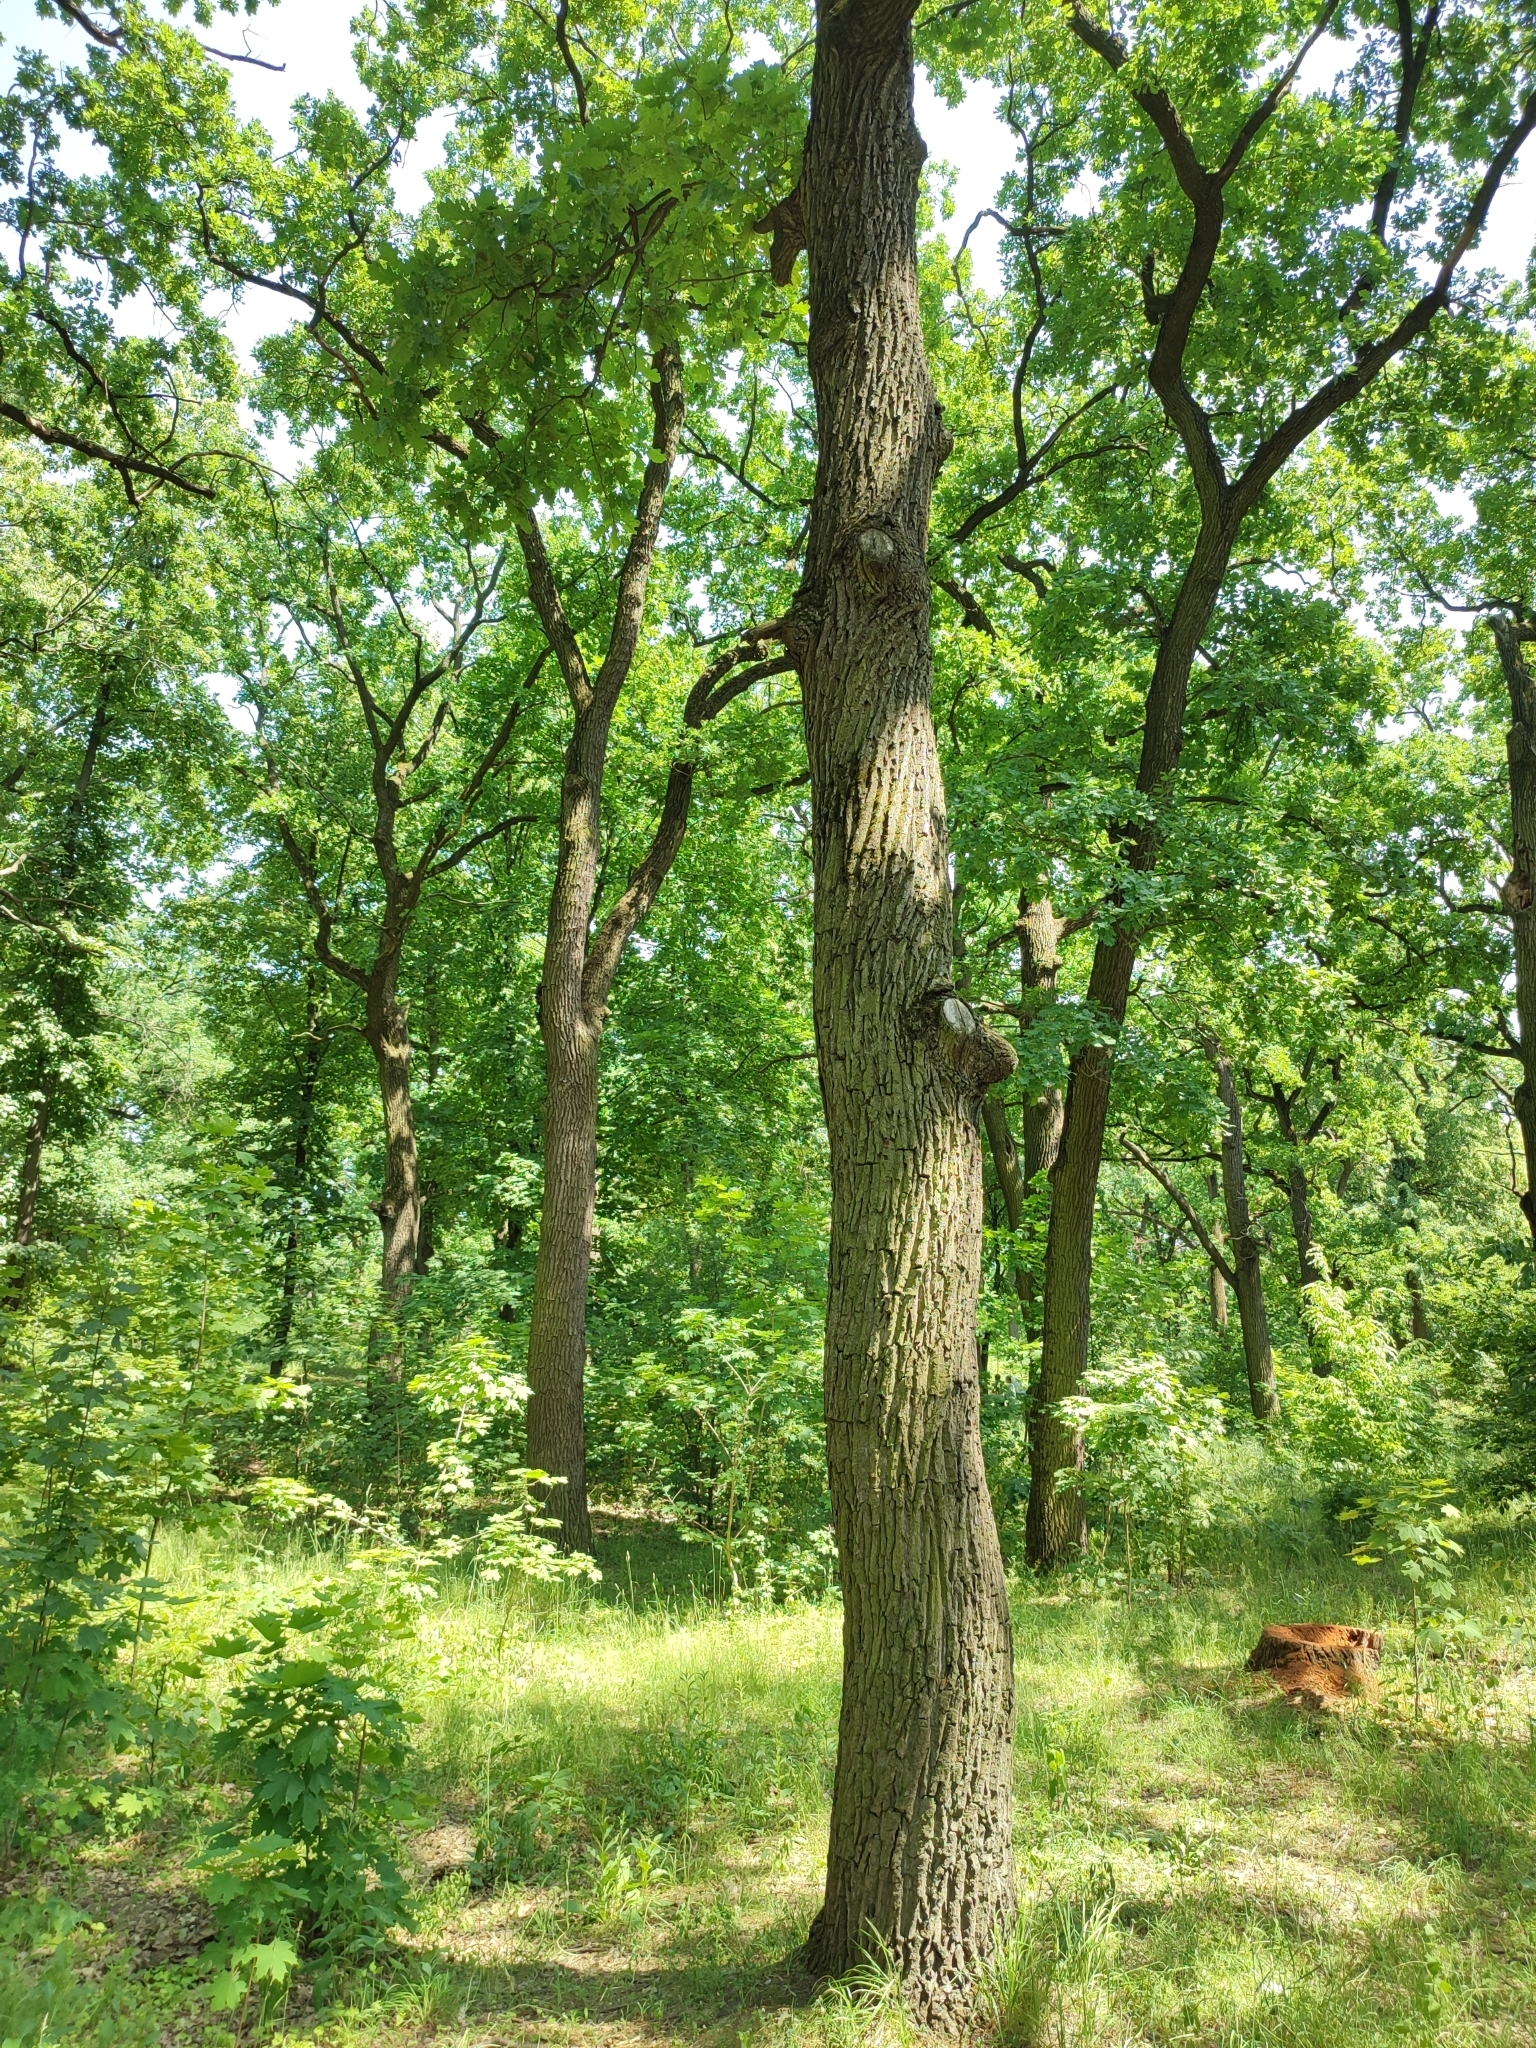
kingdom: Plantae
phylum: Tracheophyta
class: Magnoliopsida
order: Fagales
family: Fagaceae
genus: Quercus
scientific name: Quercus robur
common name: Pedunculate oak
